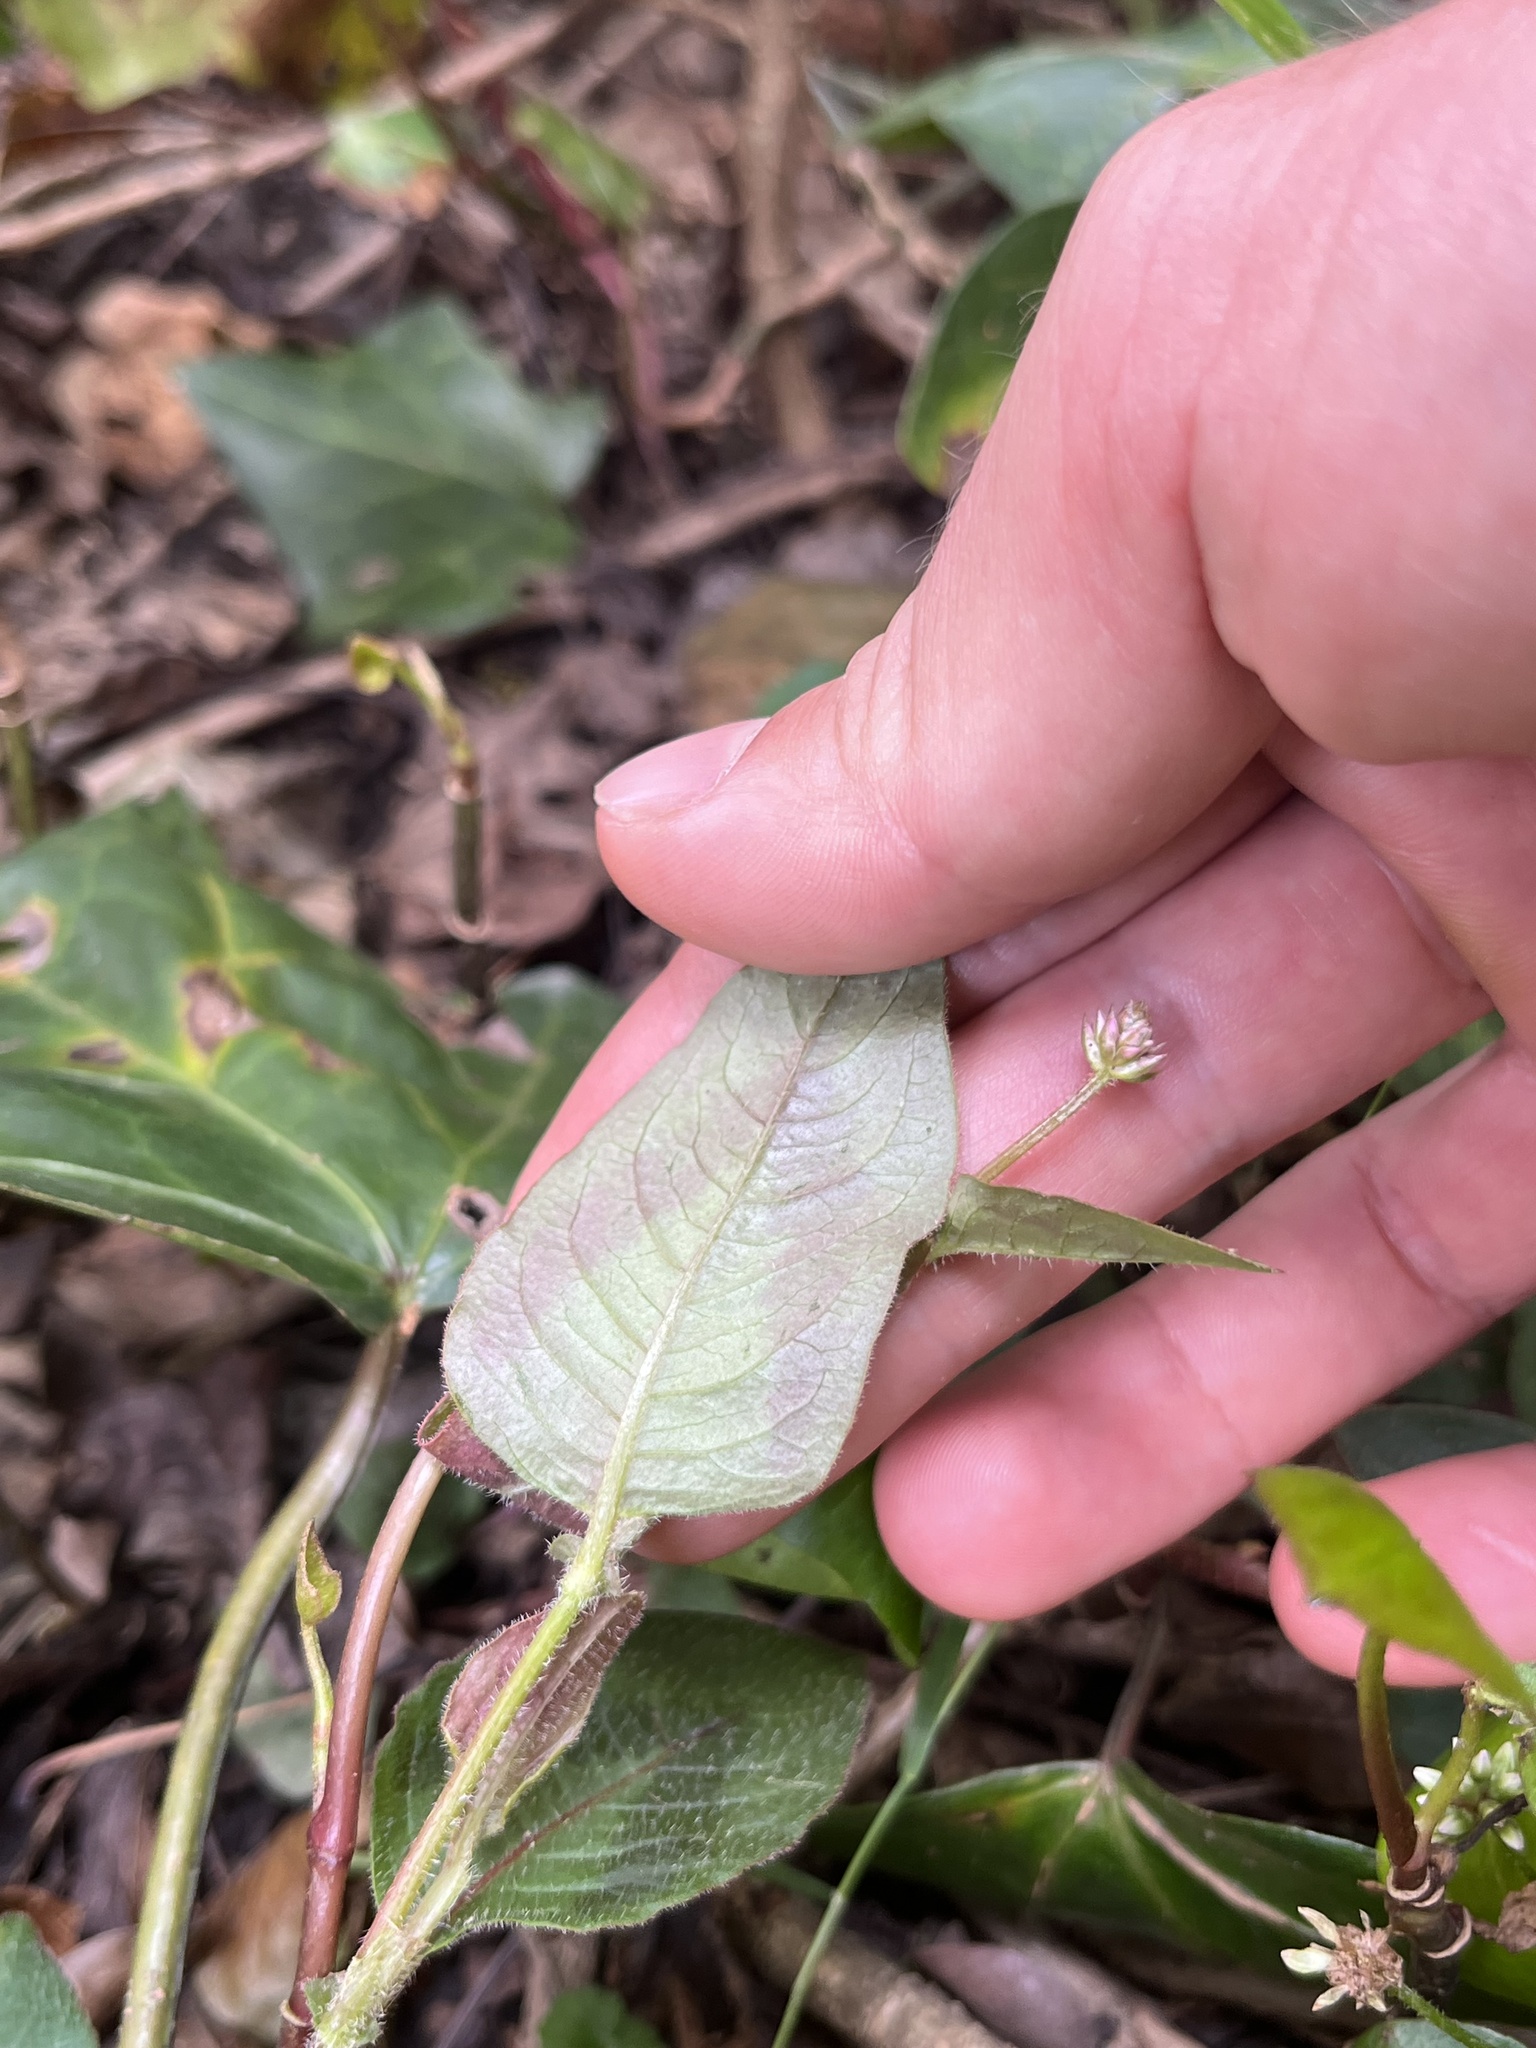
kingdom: Plantae
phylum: Tracheophyta
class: Magnoliopsida
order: Caryophyllales
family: Polygonaceae
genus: Persicaria
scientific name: Persicaria capitata
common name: Pinkhead smartweed
